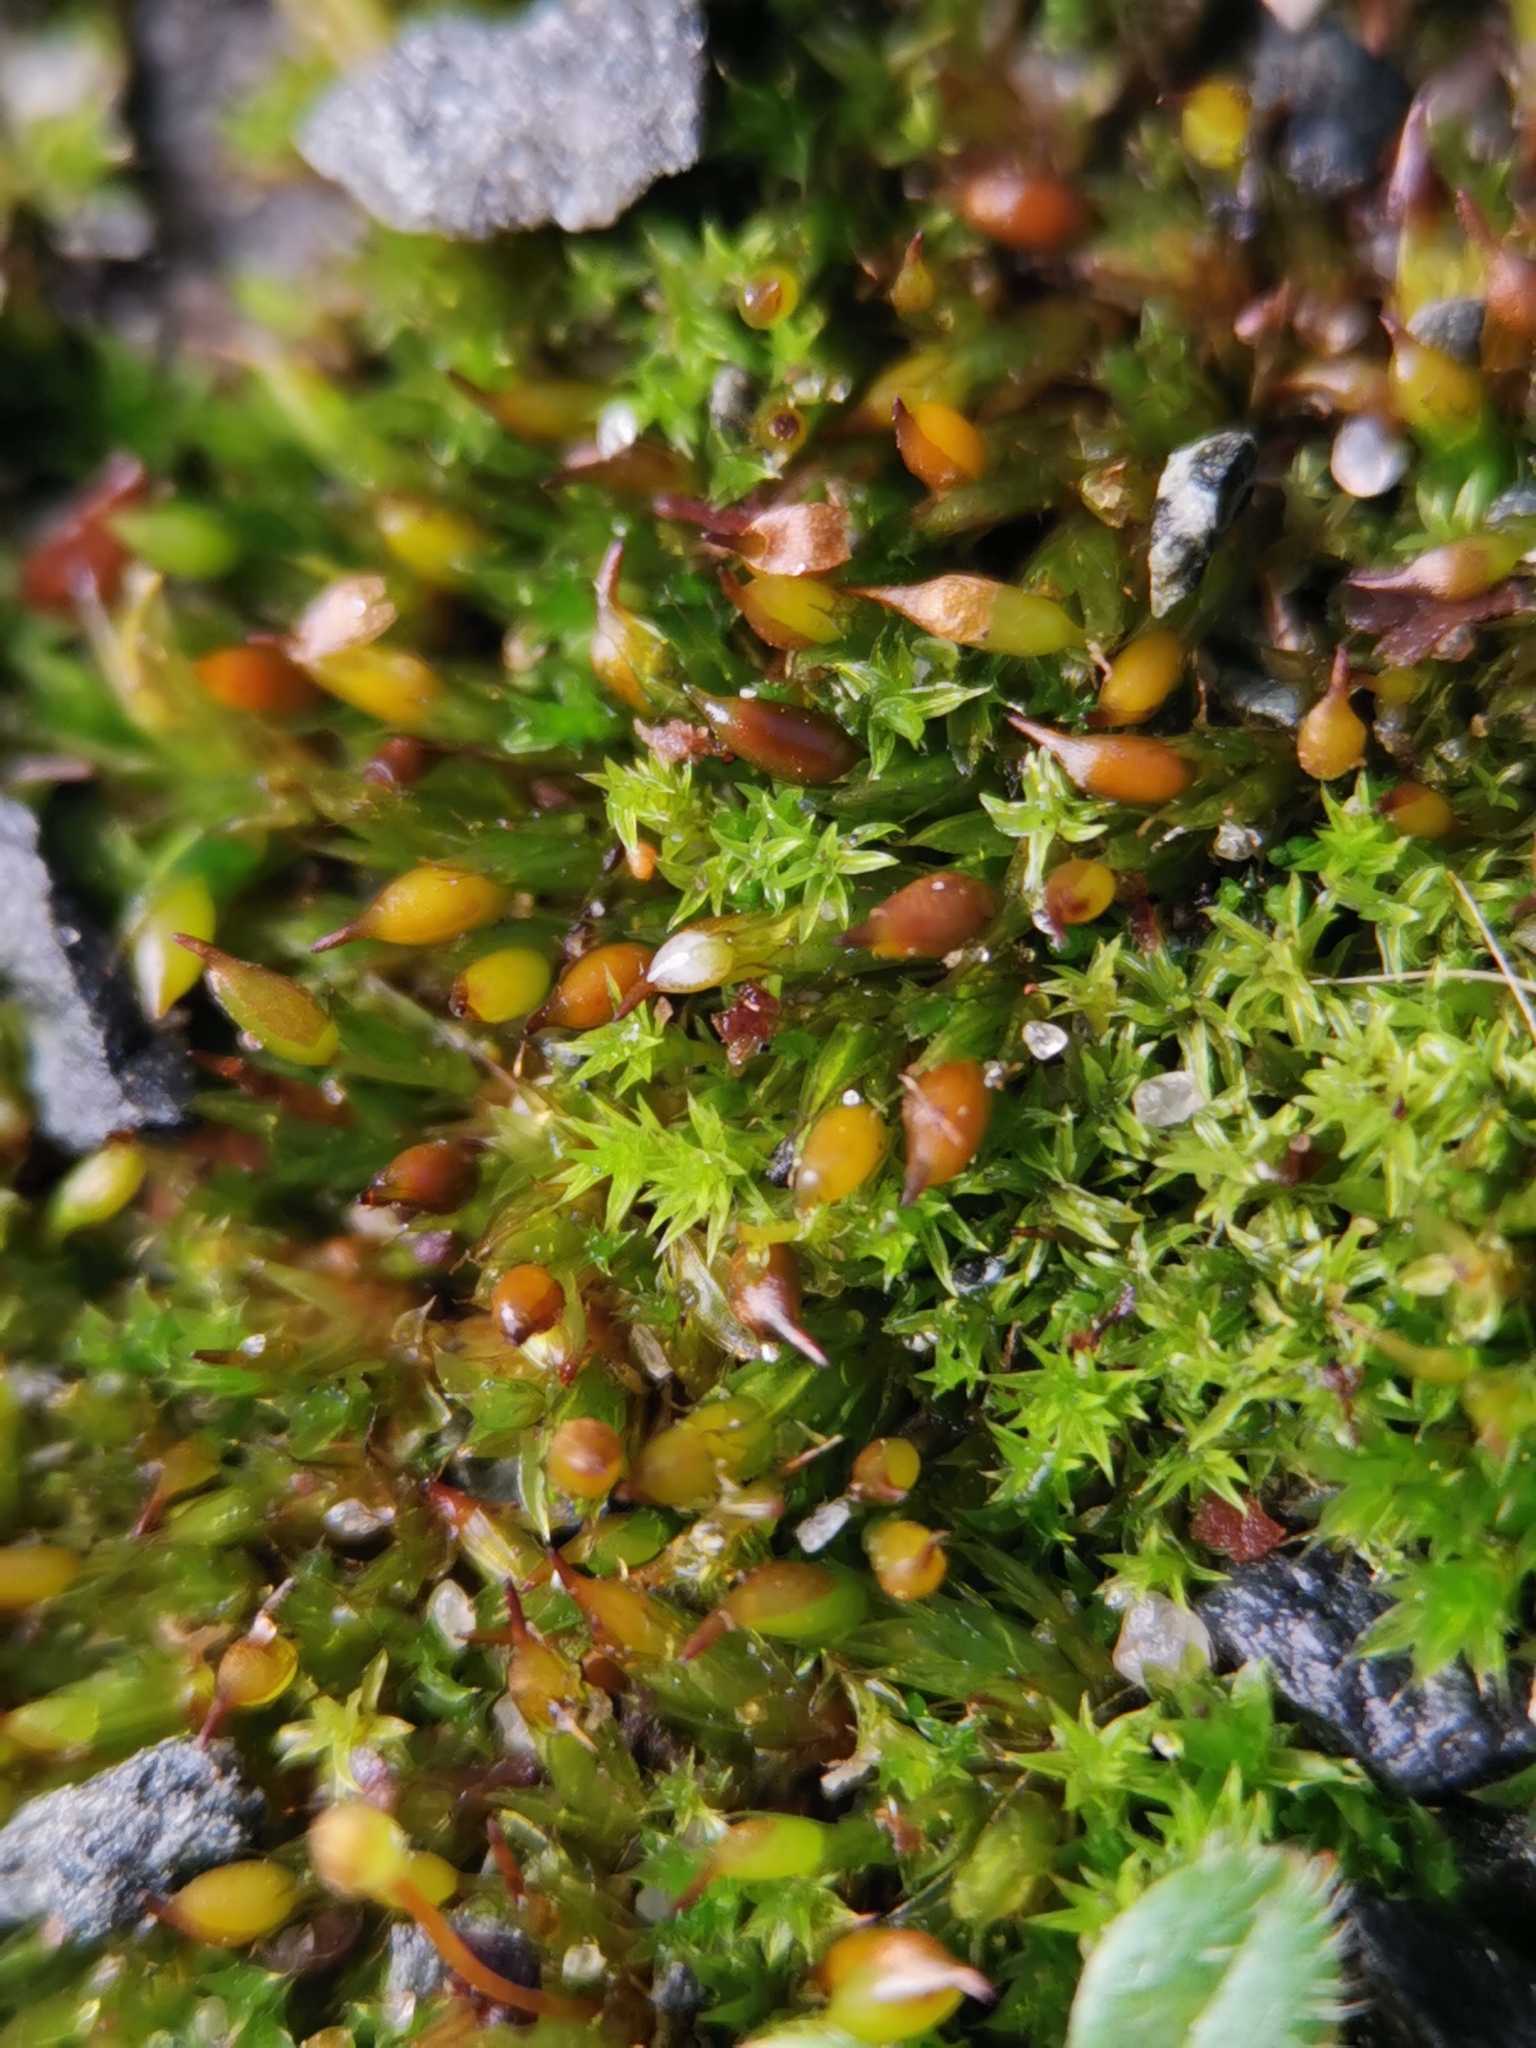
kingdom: Plantae
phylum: Bryophyta
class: Bryopsida
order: Pottiales
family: Pottiaceae
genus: Tortula
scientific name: Tortula protobryoides
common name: Tall pottia
